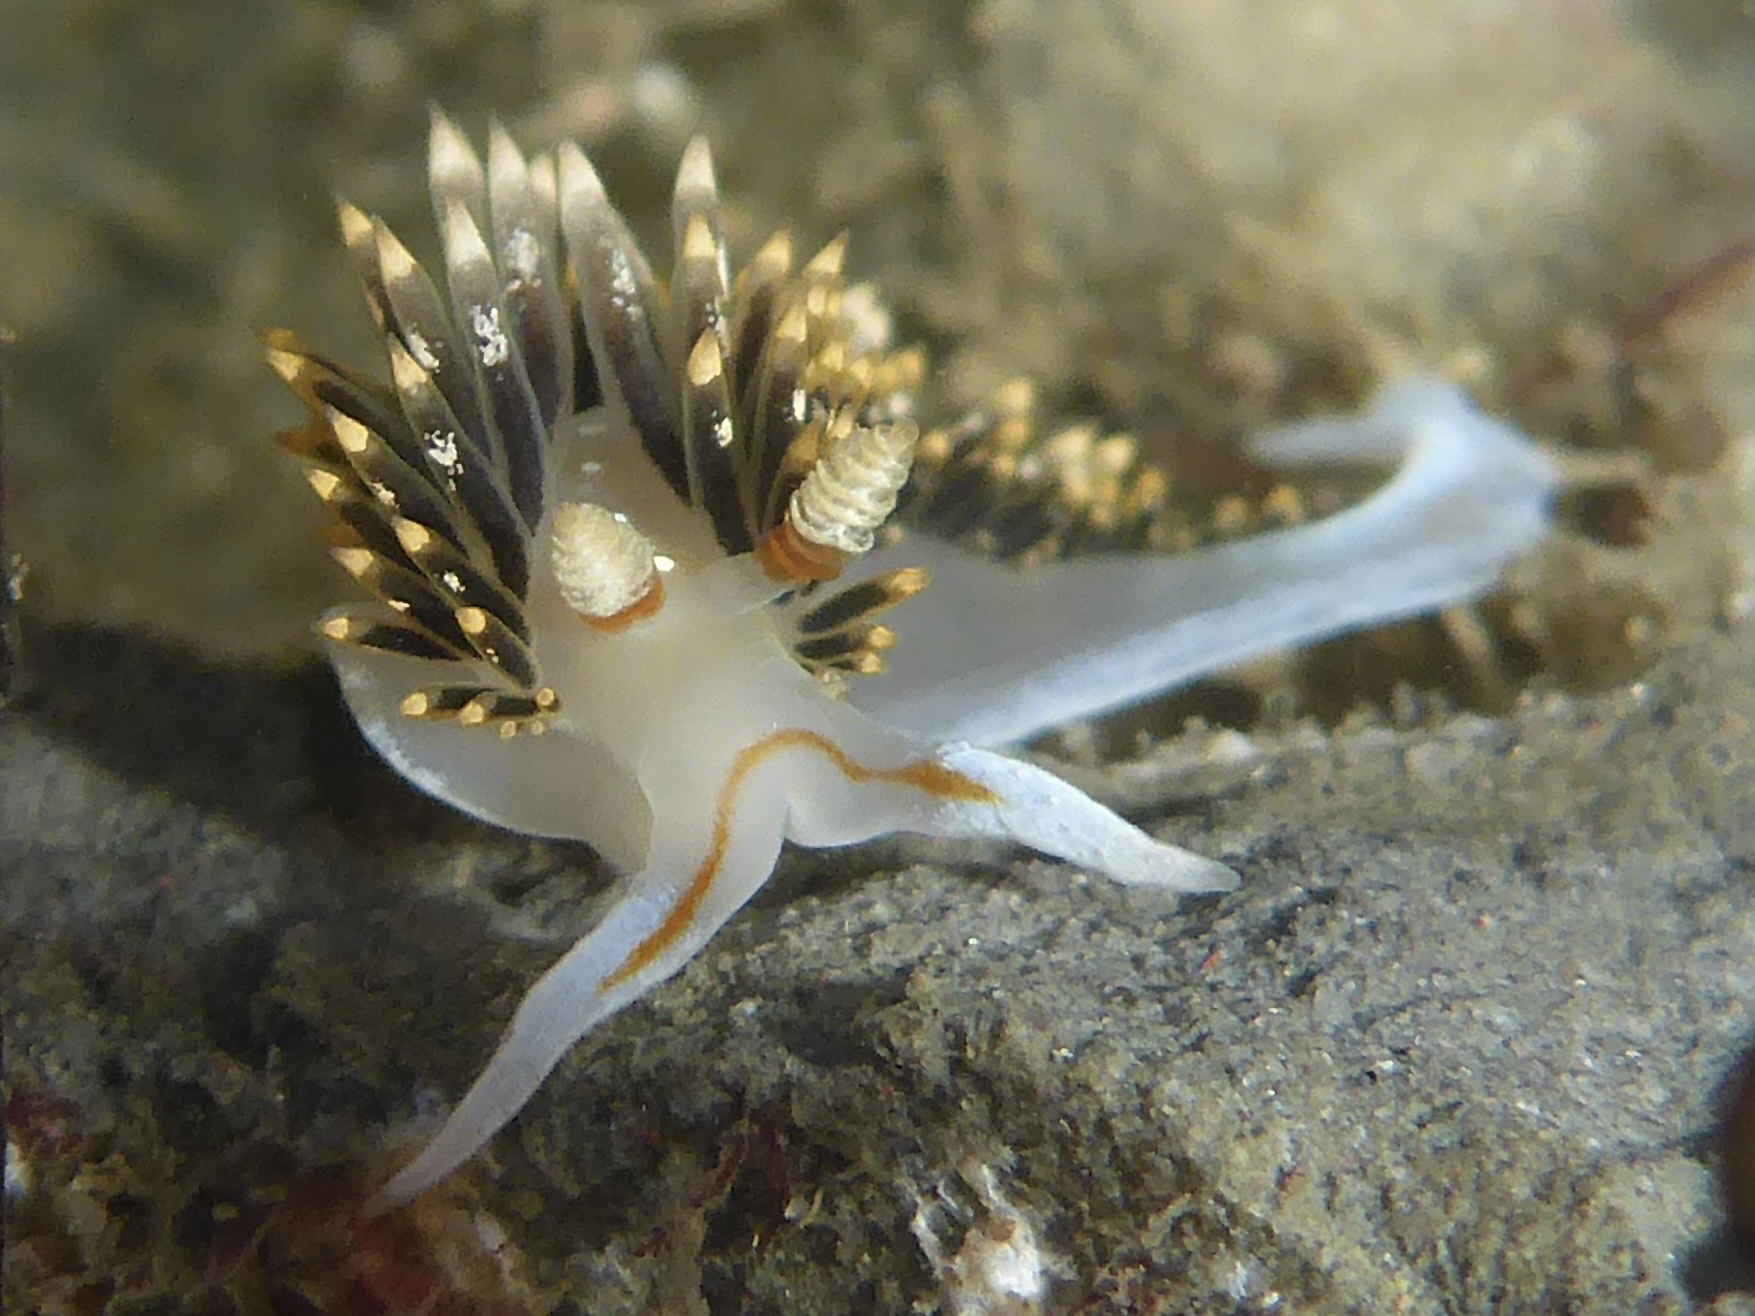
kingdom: Animalia
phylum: Mollusca
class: Gastropoda
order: Nudibranchia
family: Facelinidae
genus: Phidiana
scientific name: Phidiana hiltoni
